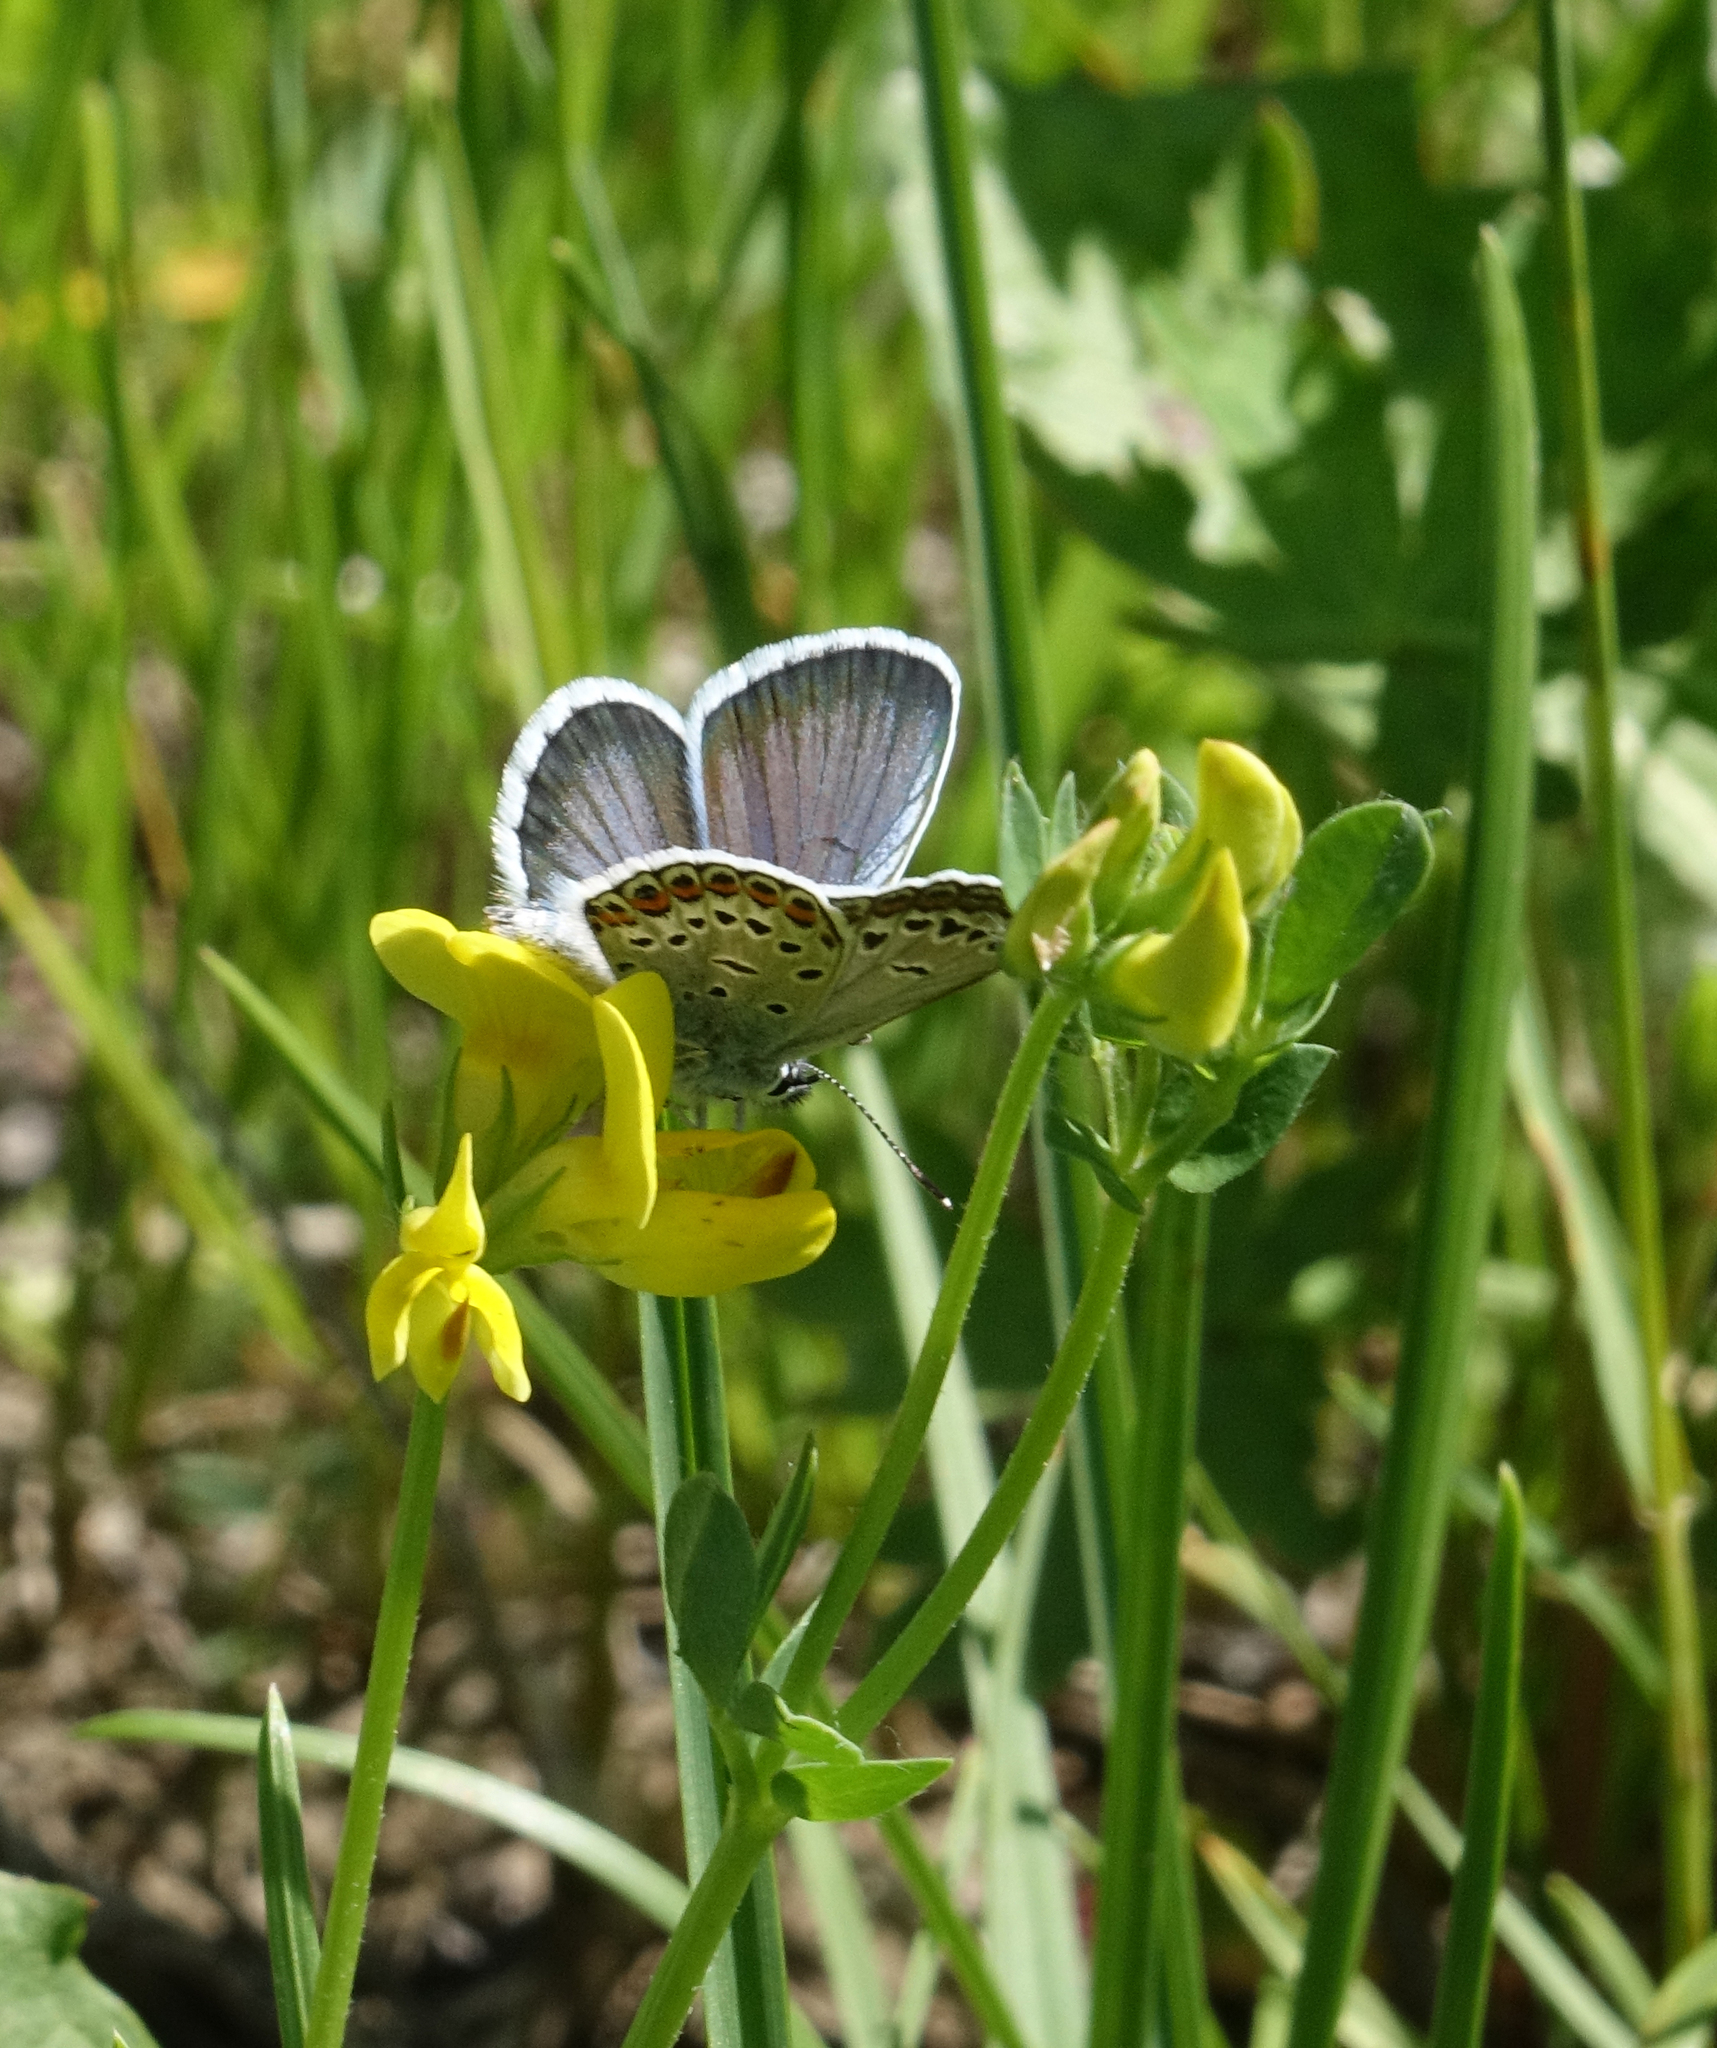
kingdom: Animalia
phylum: Arthropoda
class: Insecta
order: Lepidoptera
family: Lycaenidae
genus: Plebejus
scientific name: Plebejus argus
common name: Silver-studded blue
